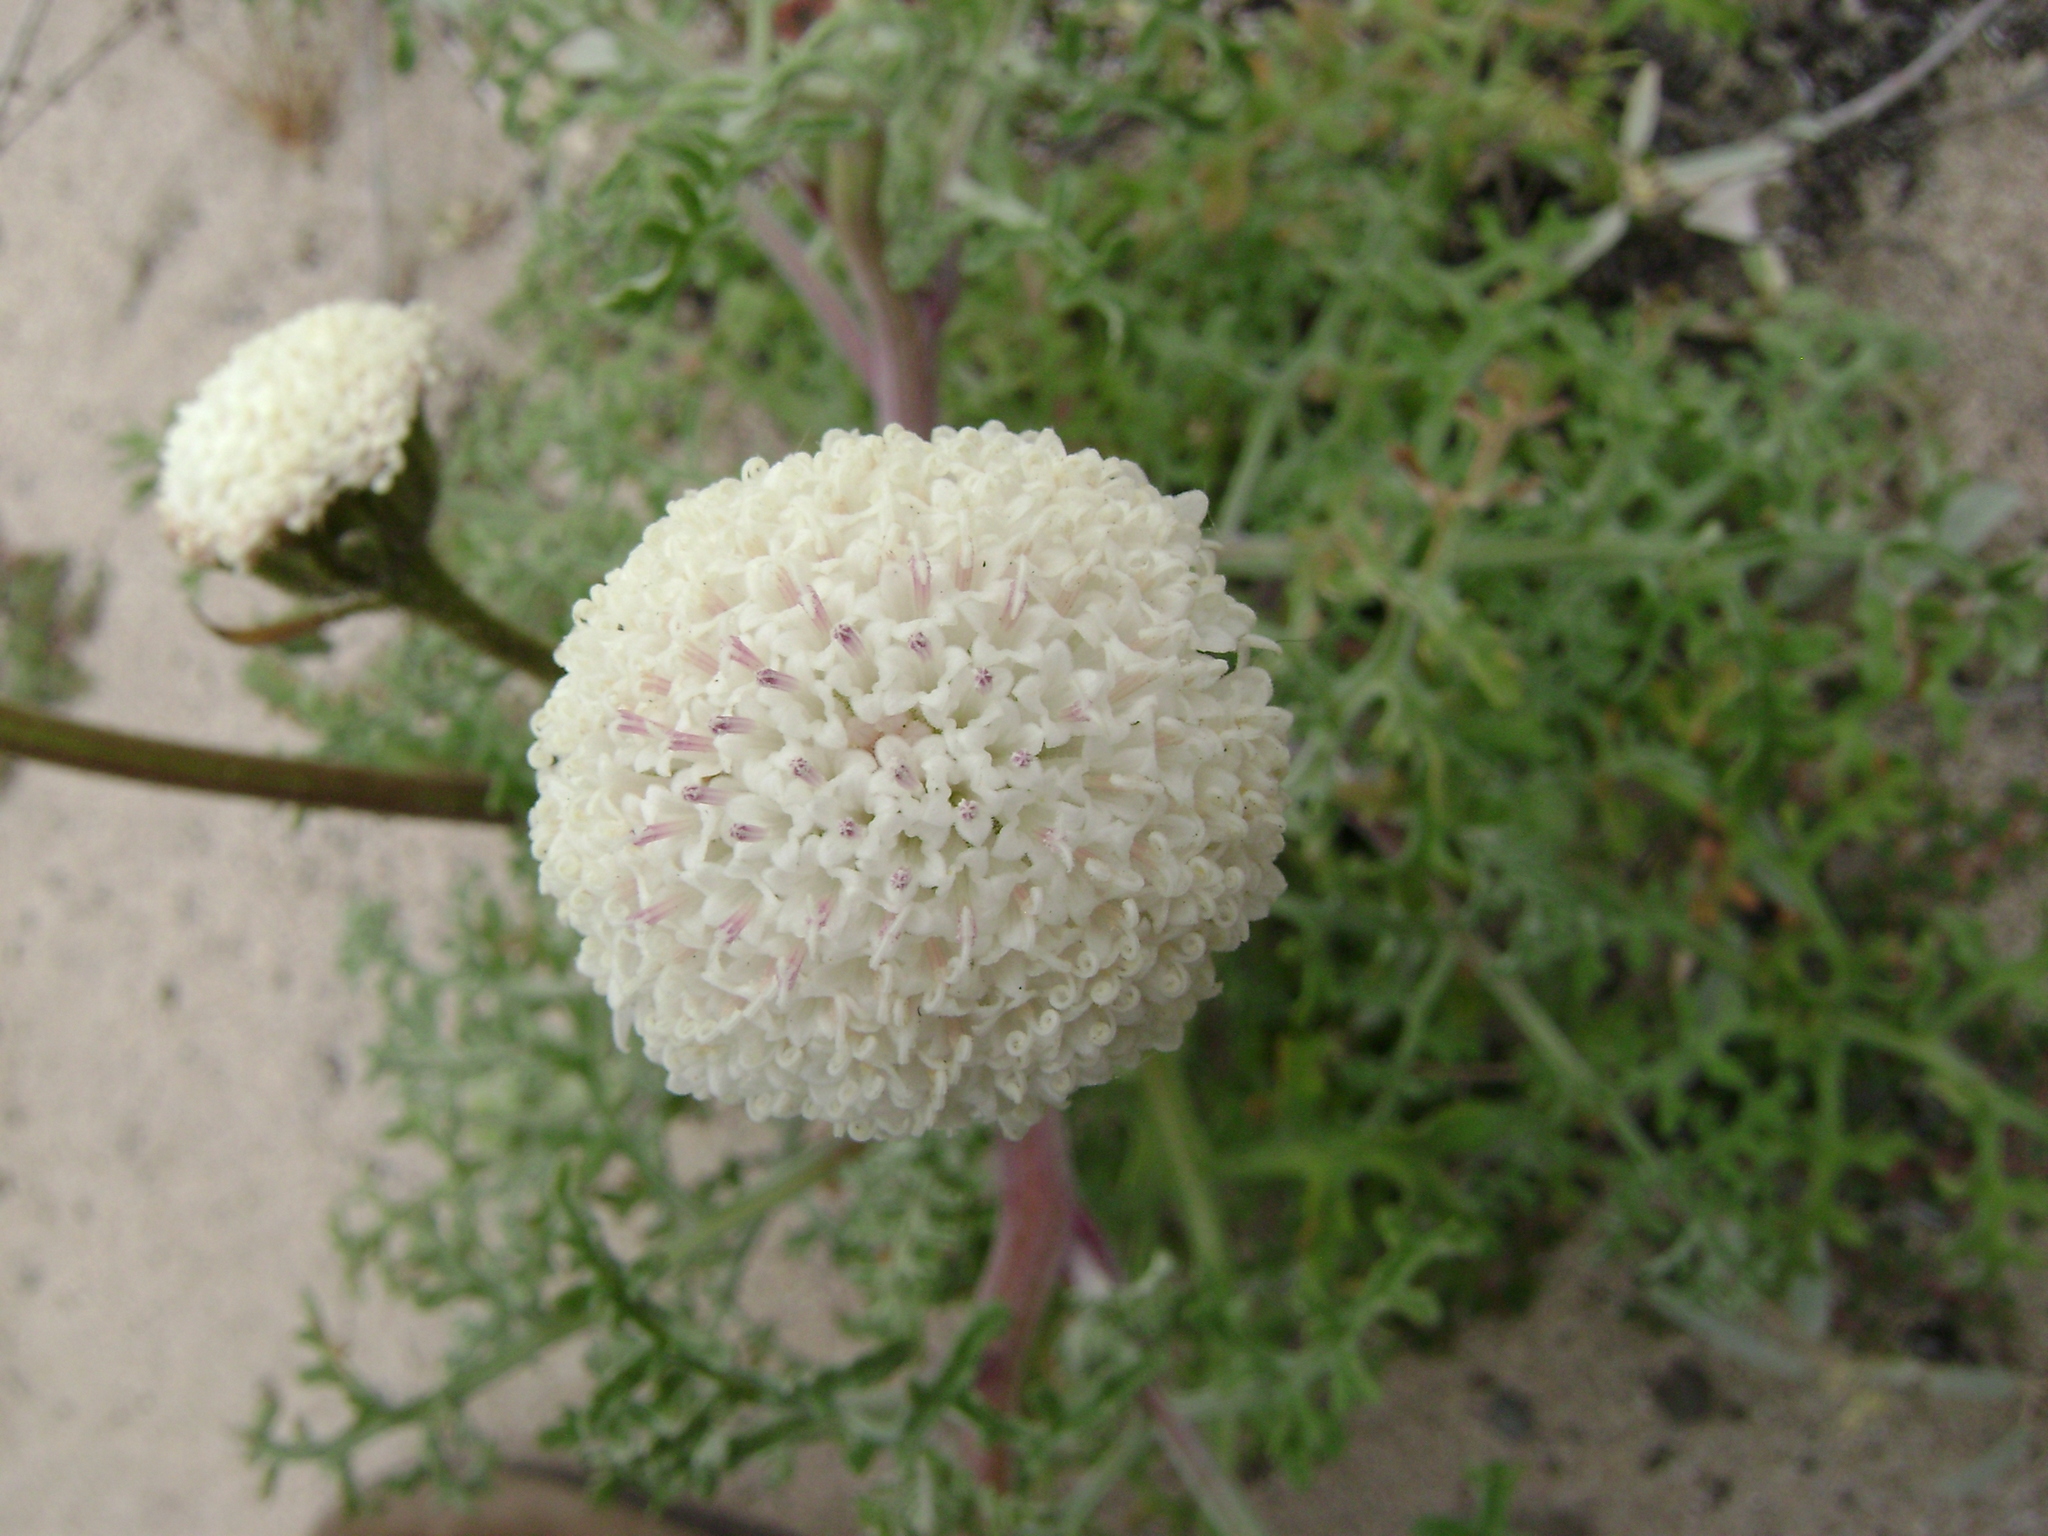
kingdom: Plantae
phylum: Tracheophyta
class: Magnoliopsida
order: Asterales
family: Asteraceae
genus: Chaenactis
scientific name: Chaenactis artemisiifolia
